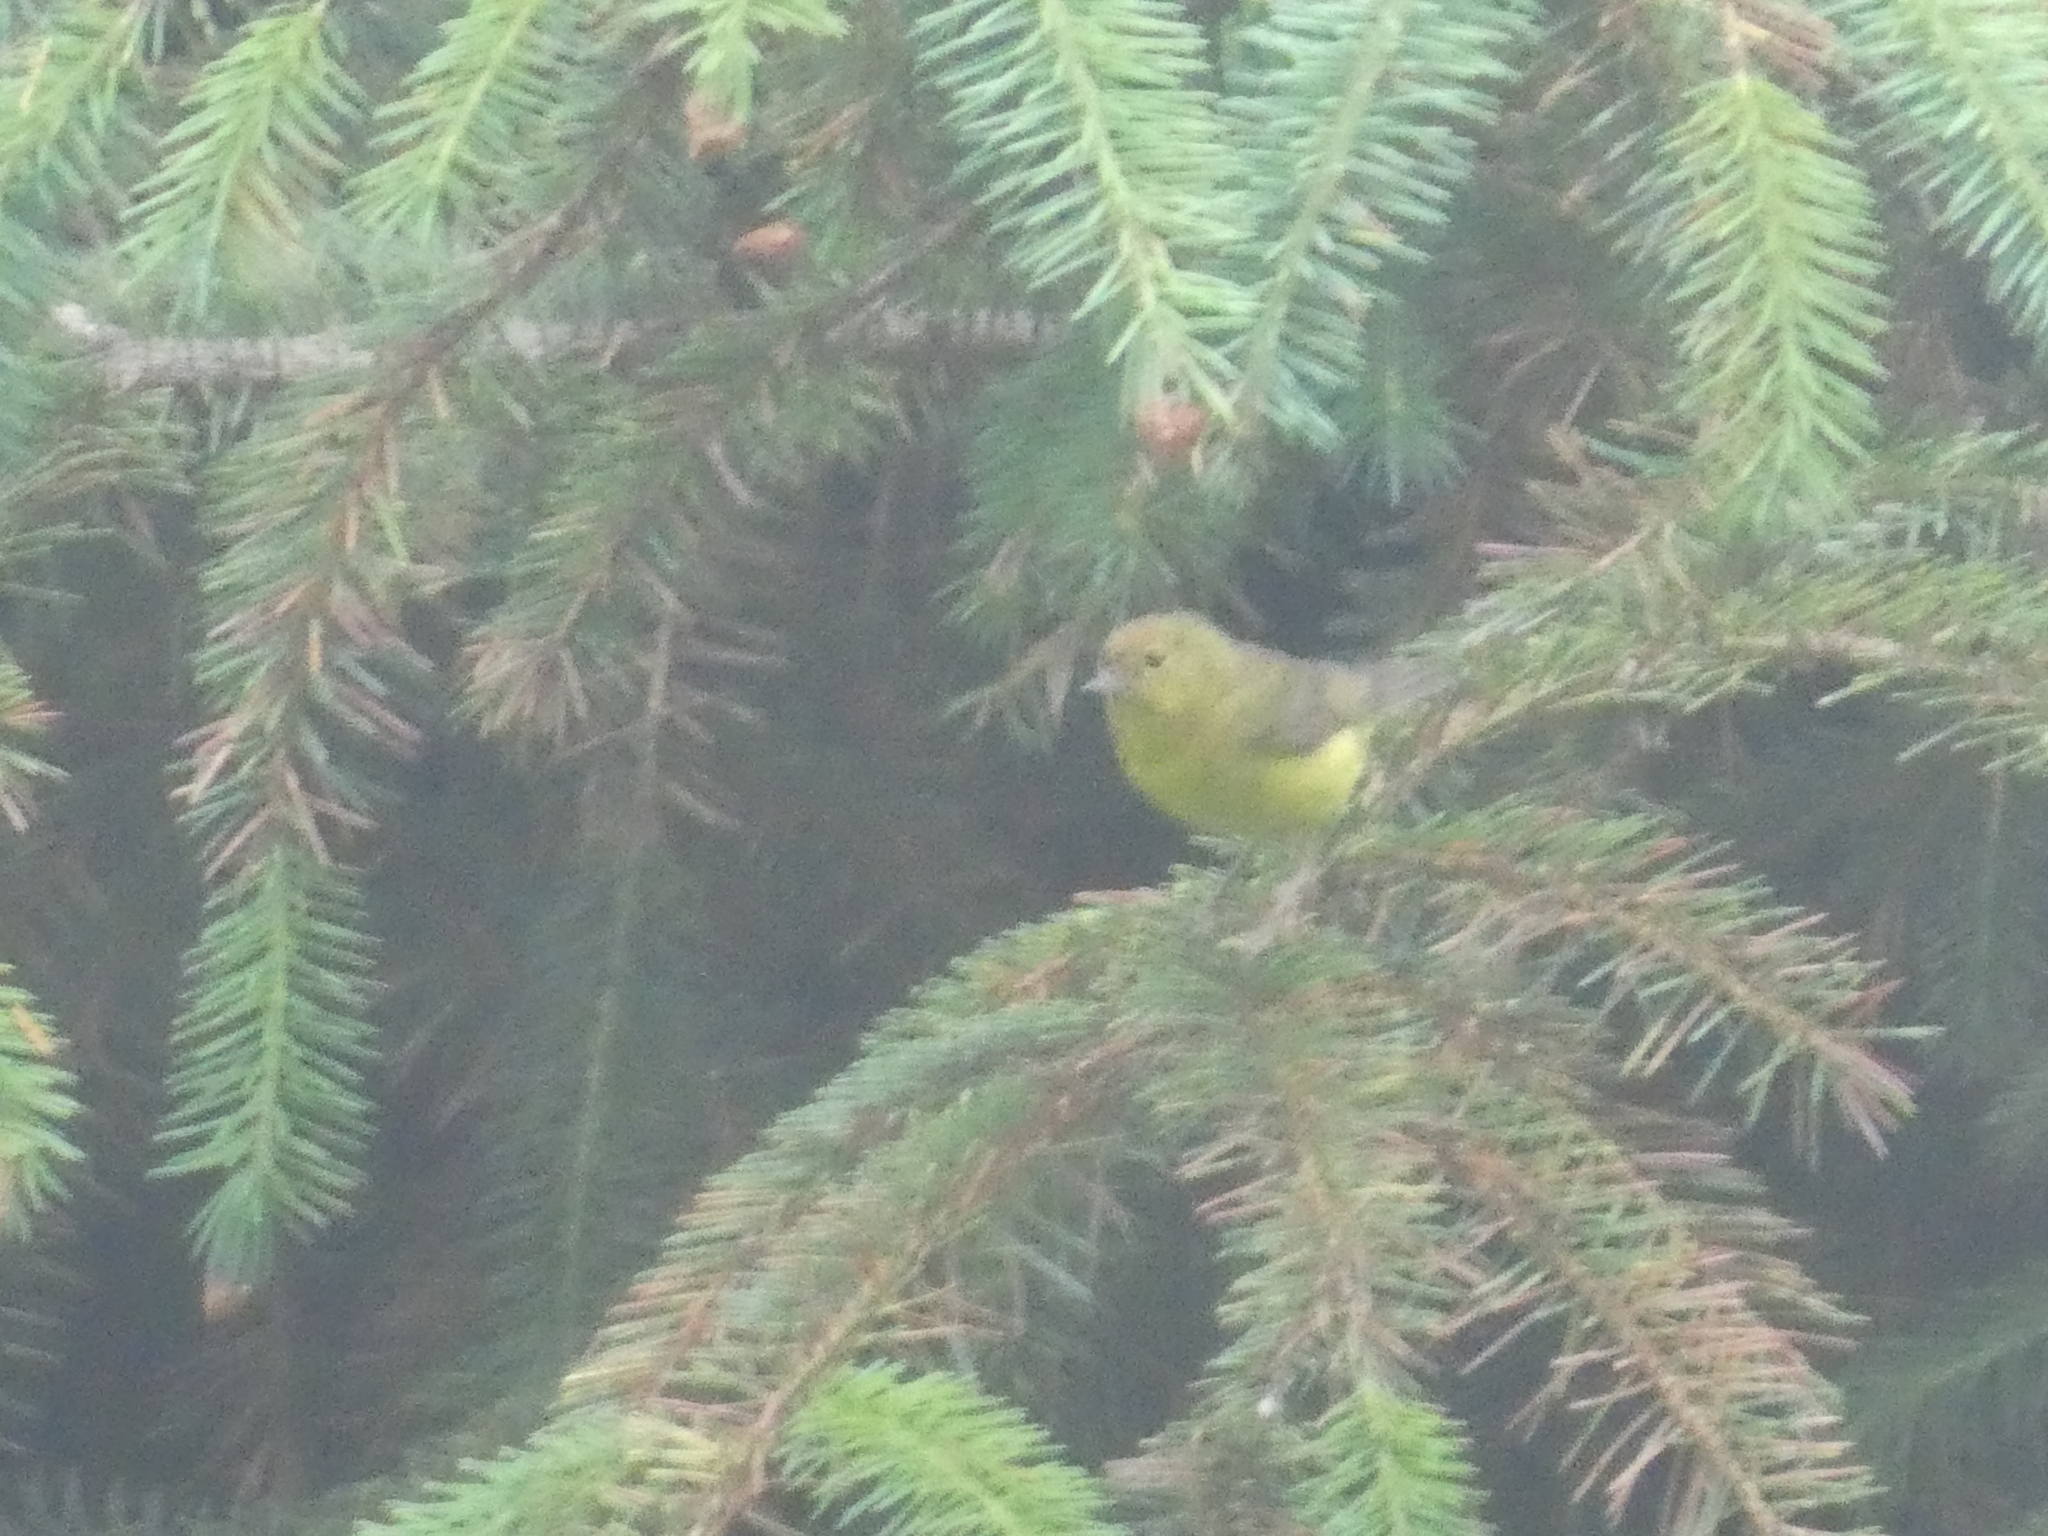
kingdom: Animalia
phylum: Chordata
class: Aves
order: Passeriformes
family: Parulidae
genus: Leiothlypis
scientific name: Leiothlypis celata
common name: Orange-crowned warbler
